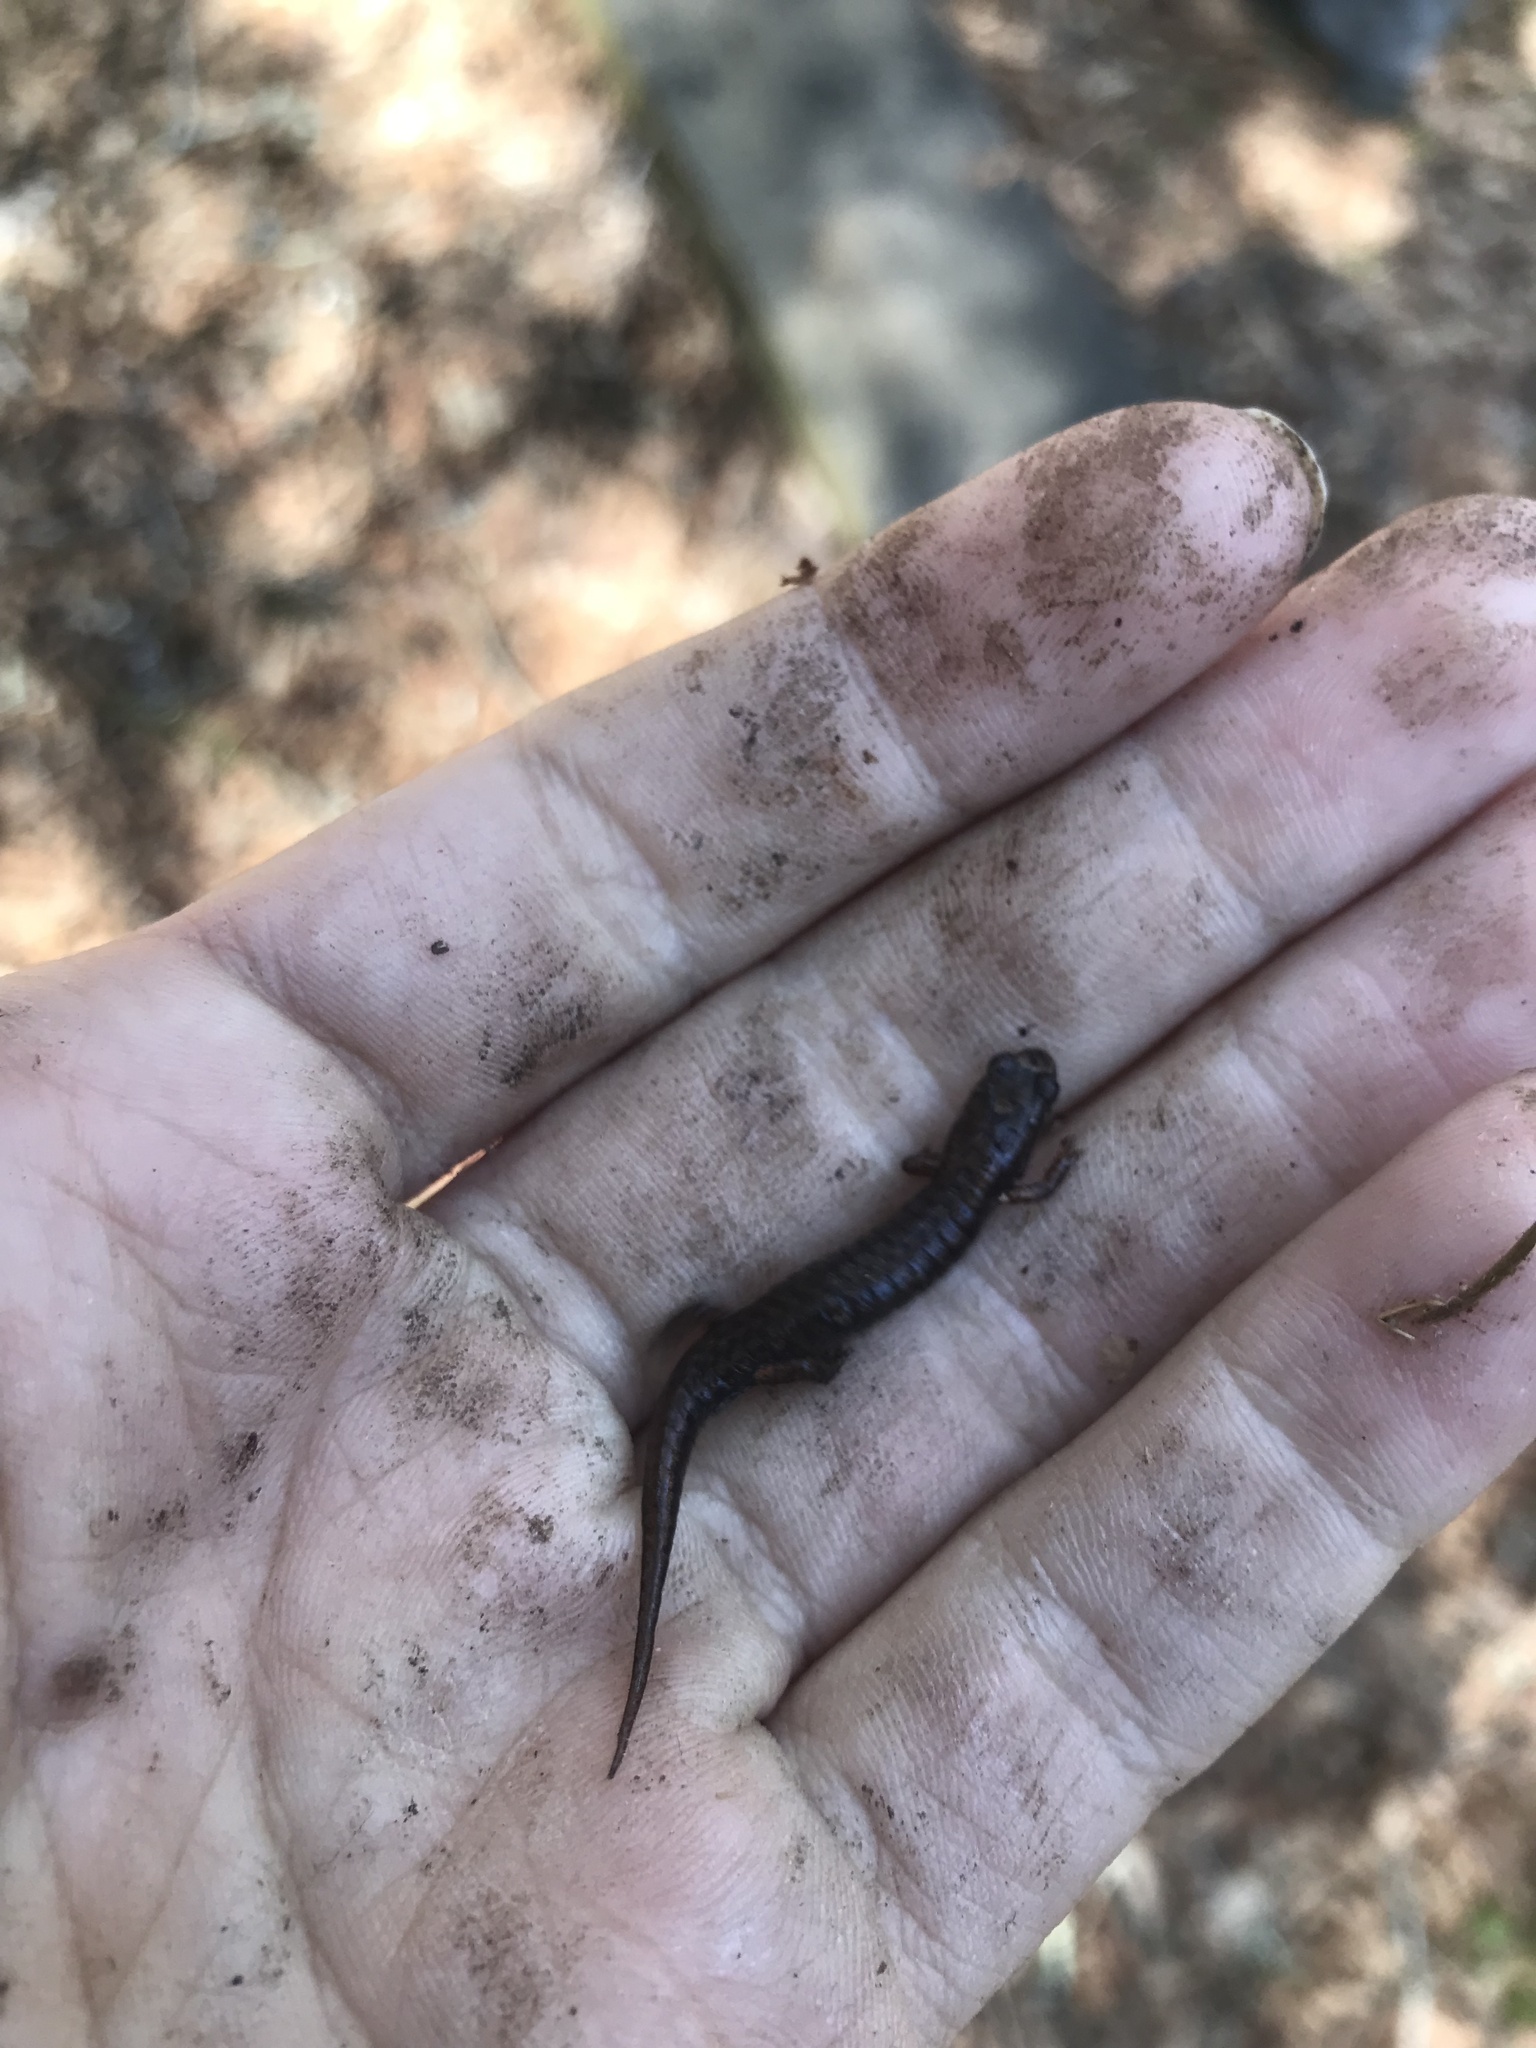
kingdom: Animalia
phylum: Chordata
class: Amphibia
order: Caudata
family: Plethodontidae
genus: Desmognathus
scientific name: Desmognathus wrighti
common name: Pygmy salamander
